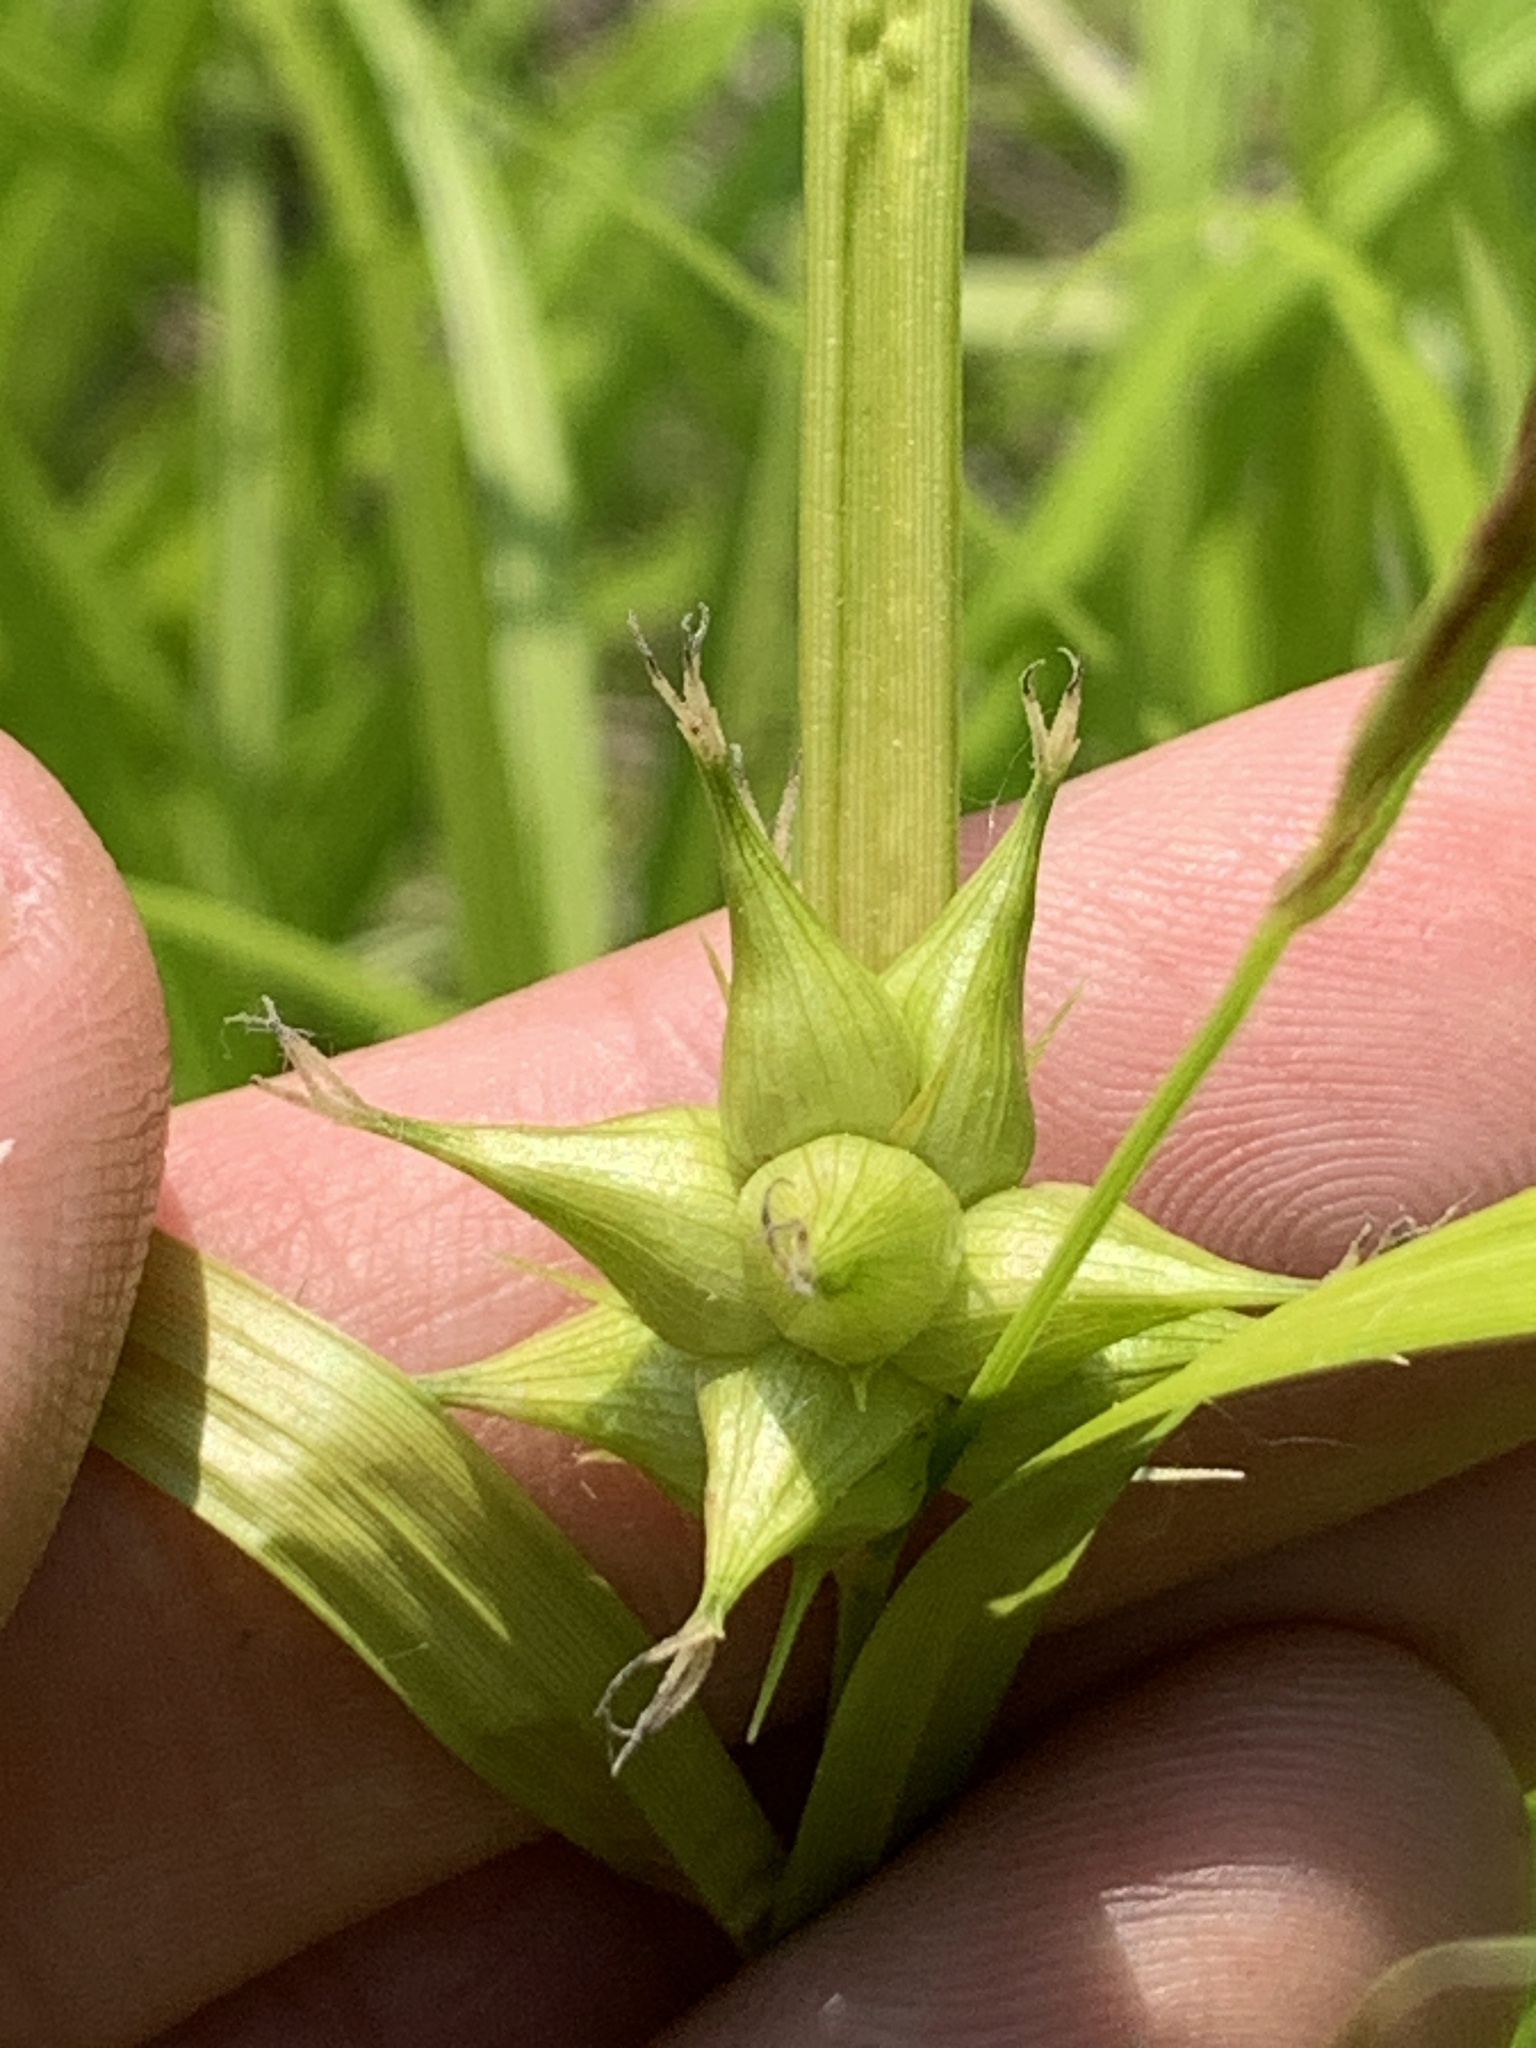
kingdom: Plantae
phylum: Tracheophyta
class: Liliopsida
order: Poales
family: Cyperaceae
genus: Carex
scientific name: Carex intumescens
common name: Greater bladder sedge
